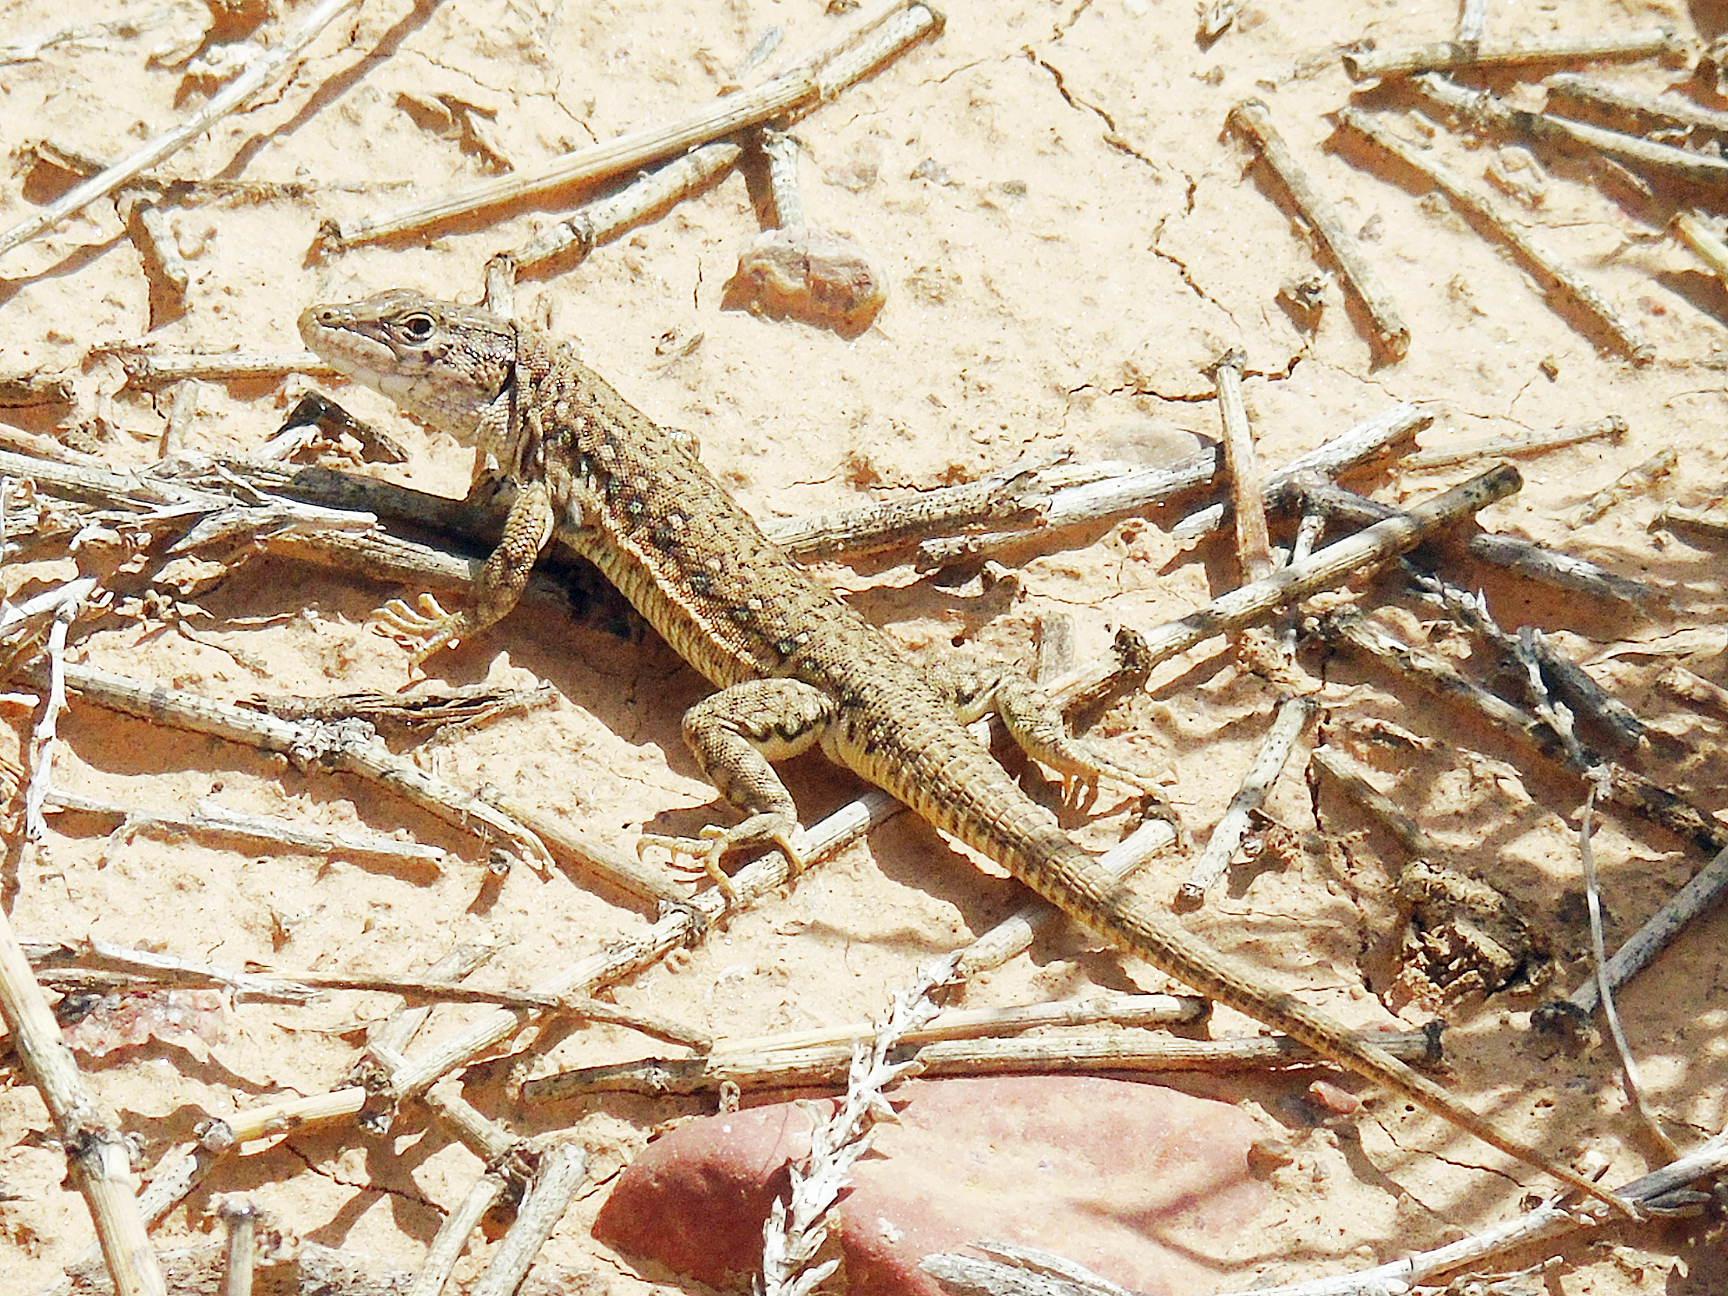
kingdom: Animalia
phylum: Chordata
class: Squamata
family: Lacertidae
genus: Eremias
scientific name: Eremias stummeri
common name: Stummer’s racerunner
